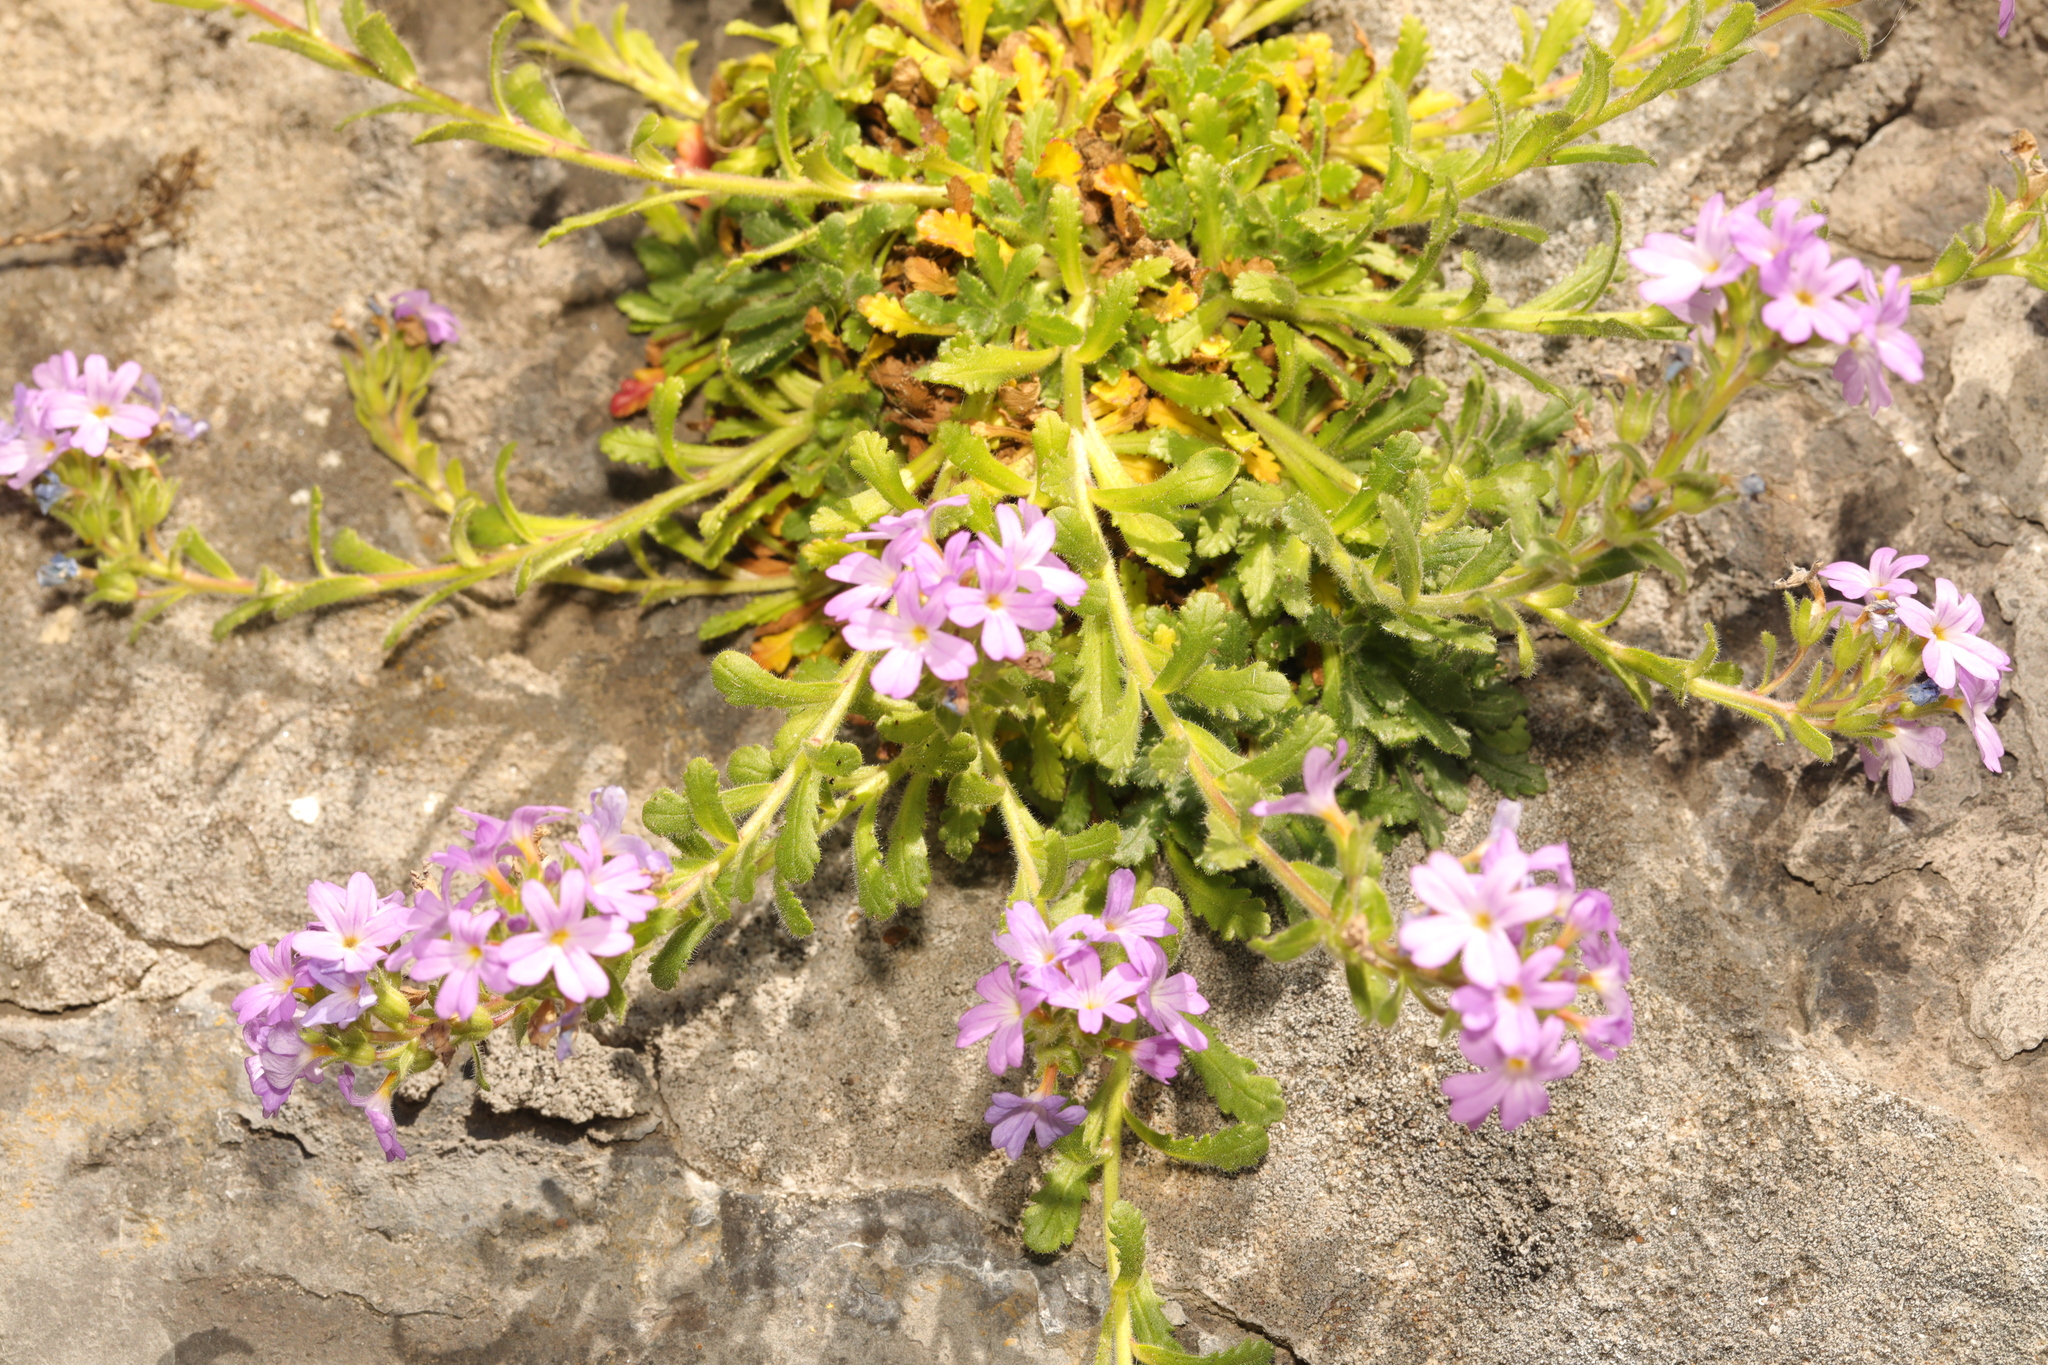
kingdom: Plantae
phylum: Tracheophyta
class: Magnoliopsida
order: Lamiales
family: Plantaginaceae
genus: Erinus
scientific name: Erinus alpinus
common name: Fairy foxglove
